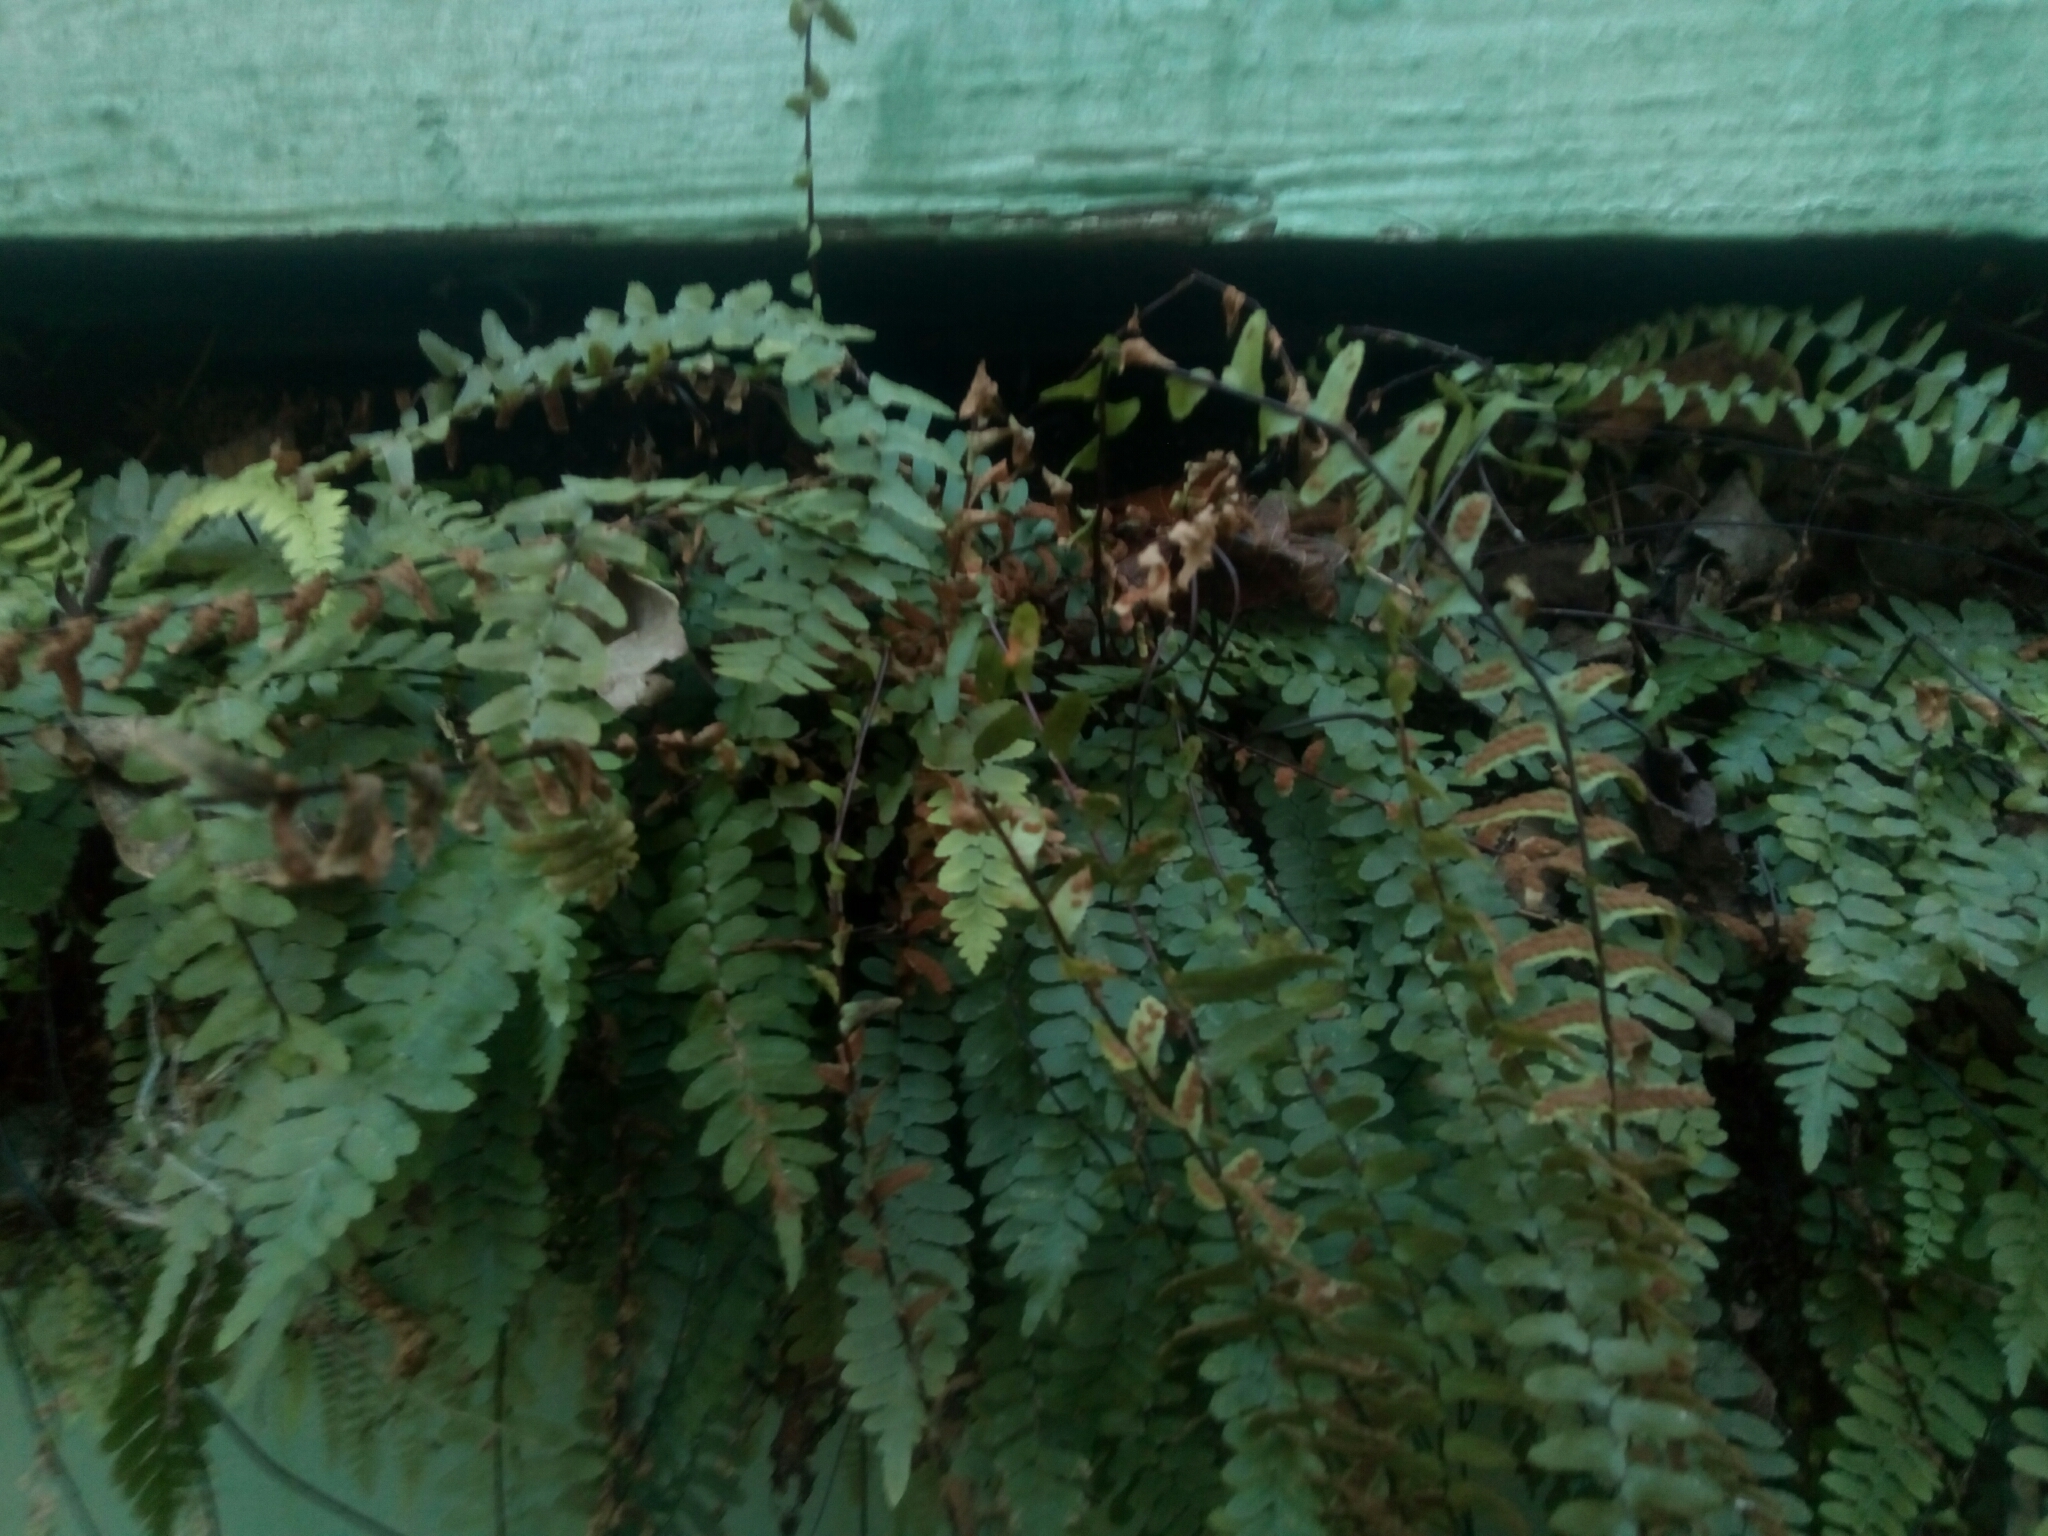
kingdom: Plantae
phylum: Tracheophyta
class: Polypodiopsida
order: Polypodiales
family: Aspleniaceae
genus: Asplenium
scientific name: Asplenium platyneuron
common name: Ebony spleenwort
